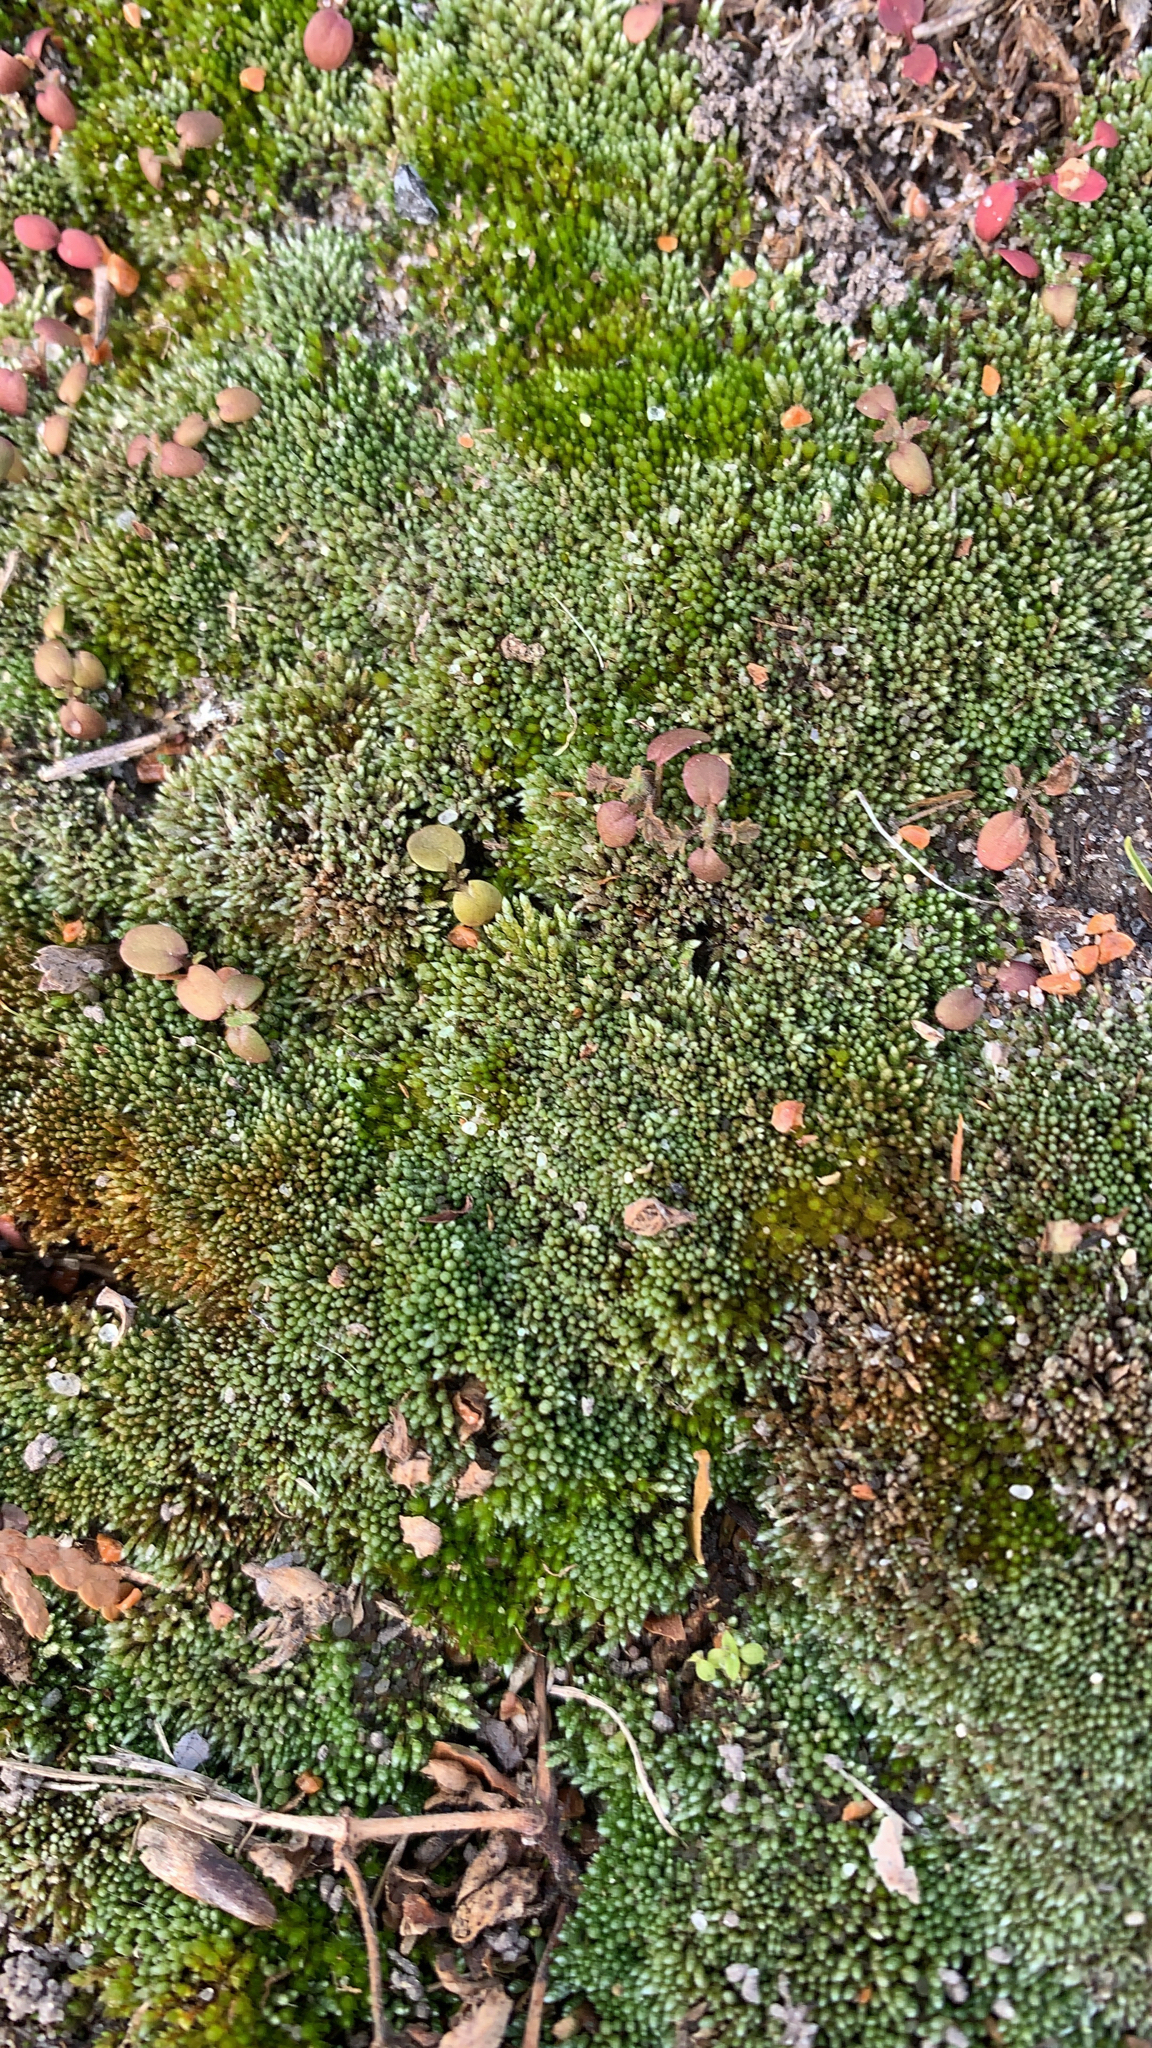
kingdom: Plantae
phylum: Bryophyta
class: Bryopsida
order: Bryales
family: Bryaceae
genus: Bryum
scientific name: Bryum argenteum
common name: Silver-moss
